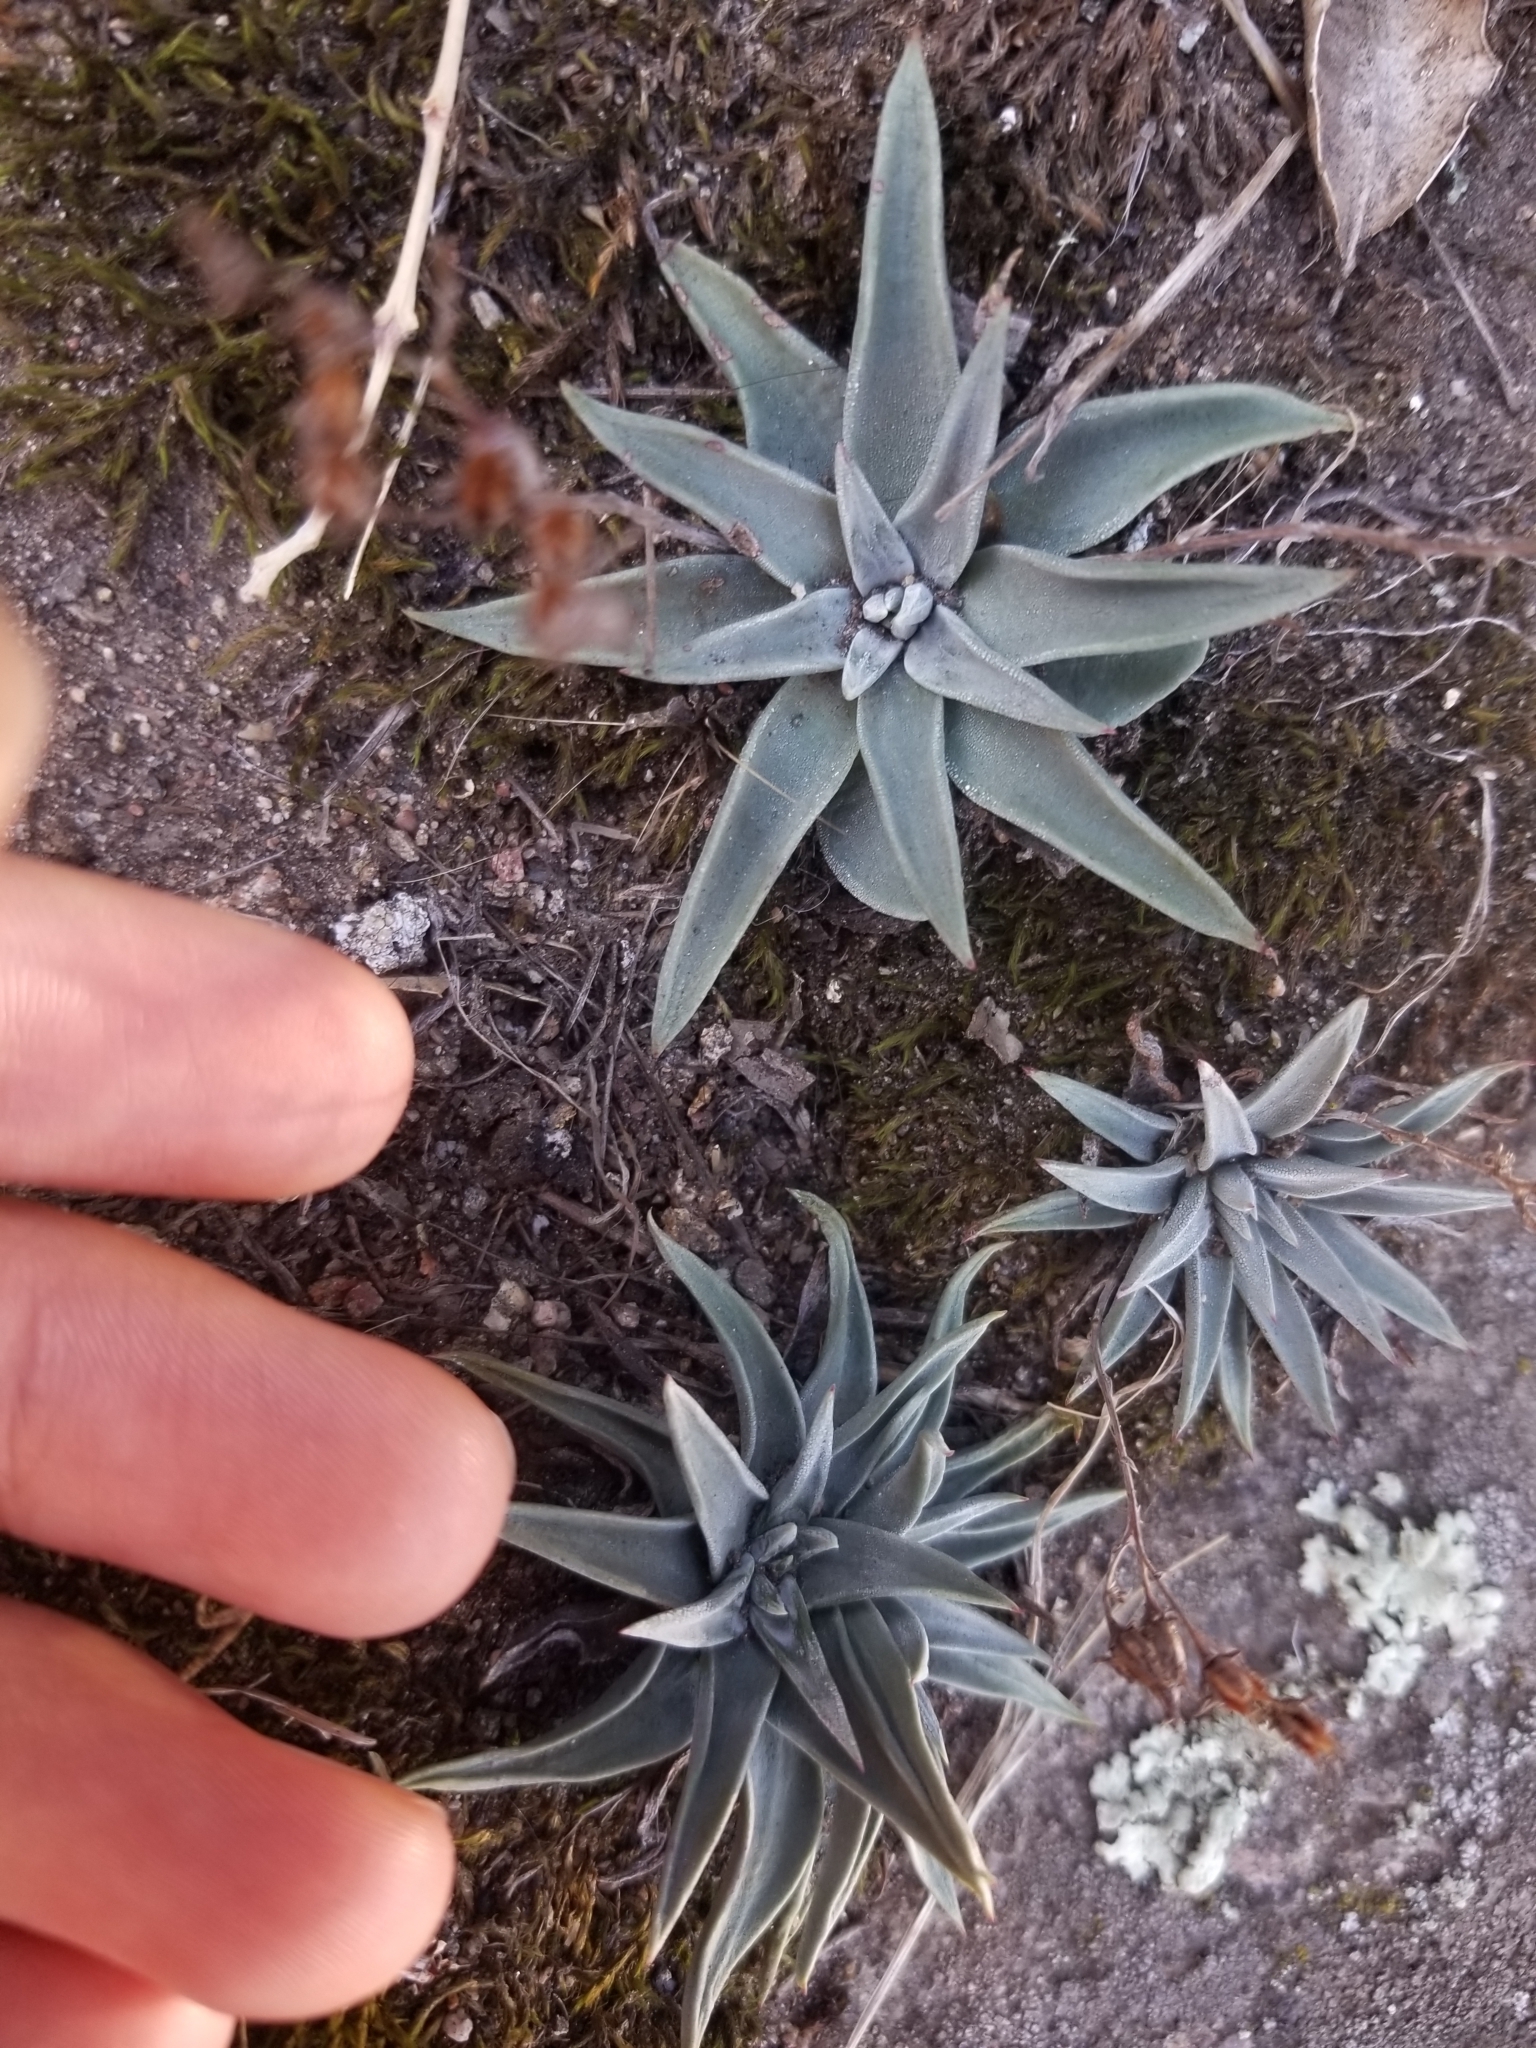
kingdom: Plantae
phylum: Tracheophyta
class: Magnoliopsida
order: Saxifragales
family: Crassulaceae
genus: Dudleya
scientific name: Dudleya abramsii
